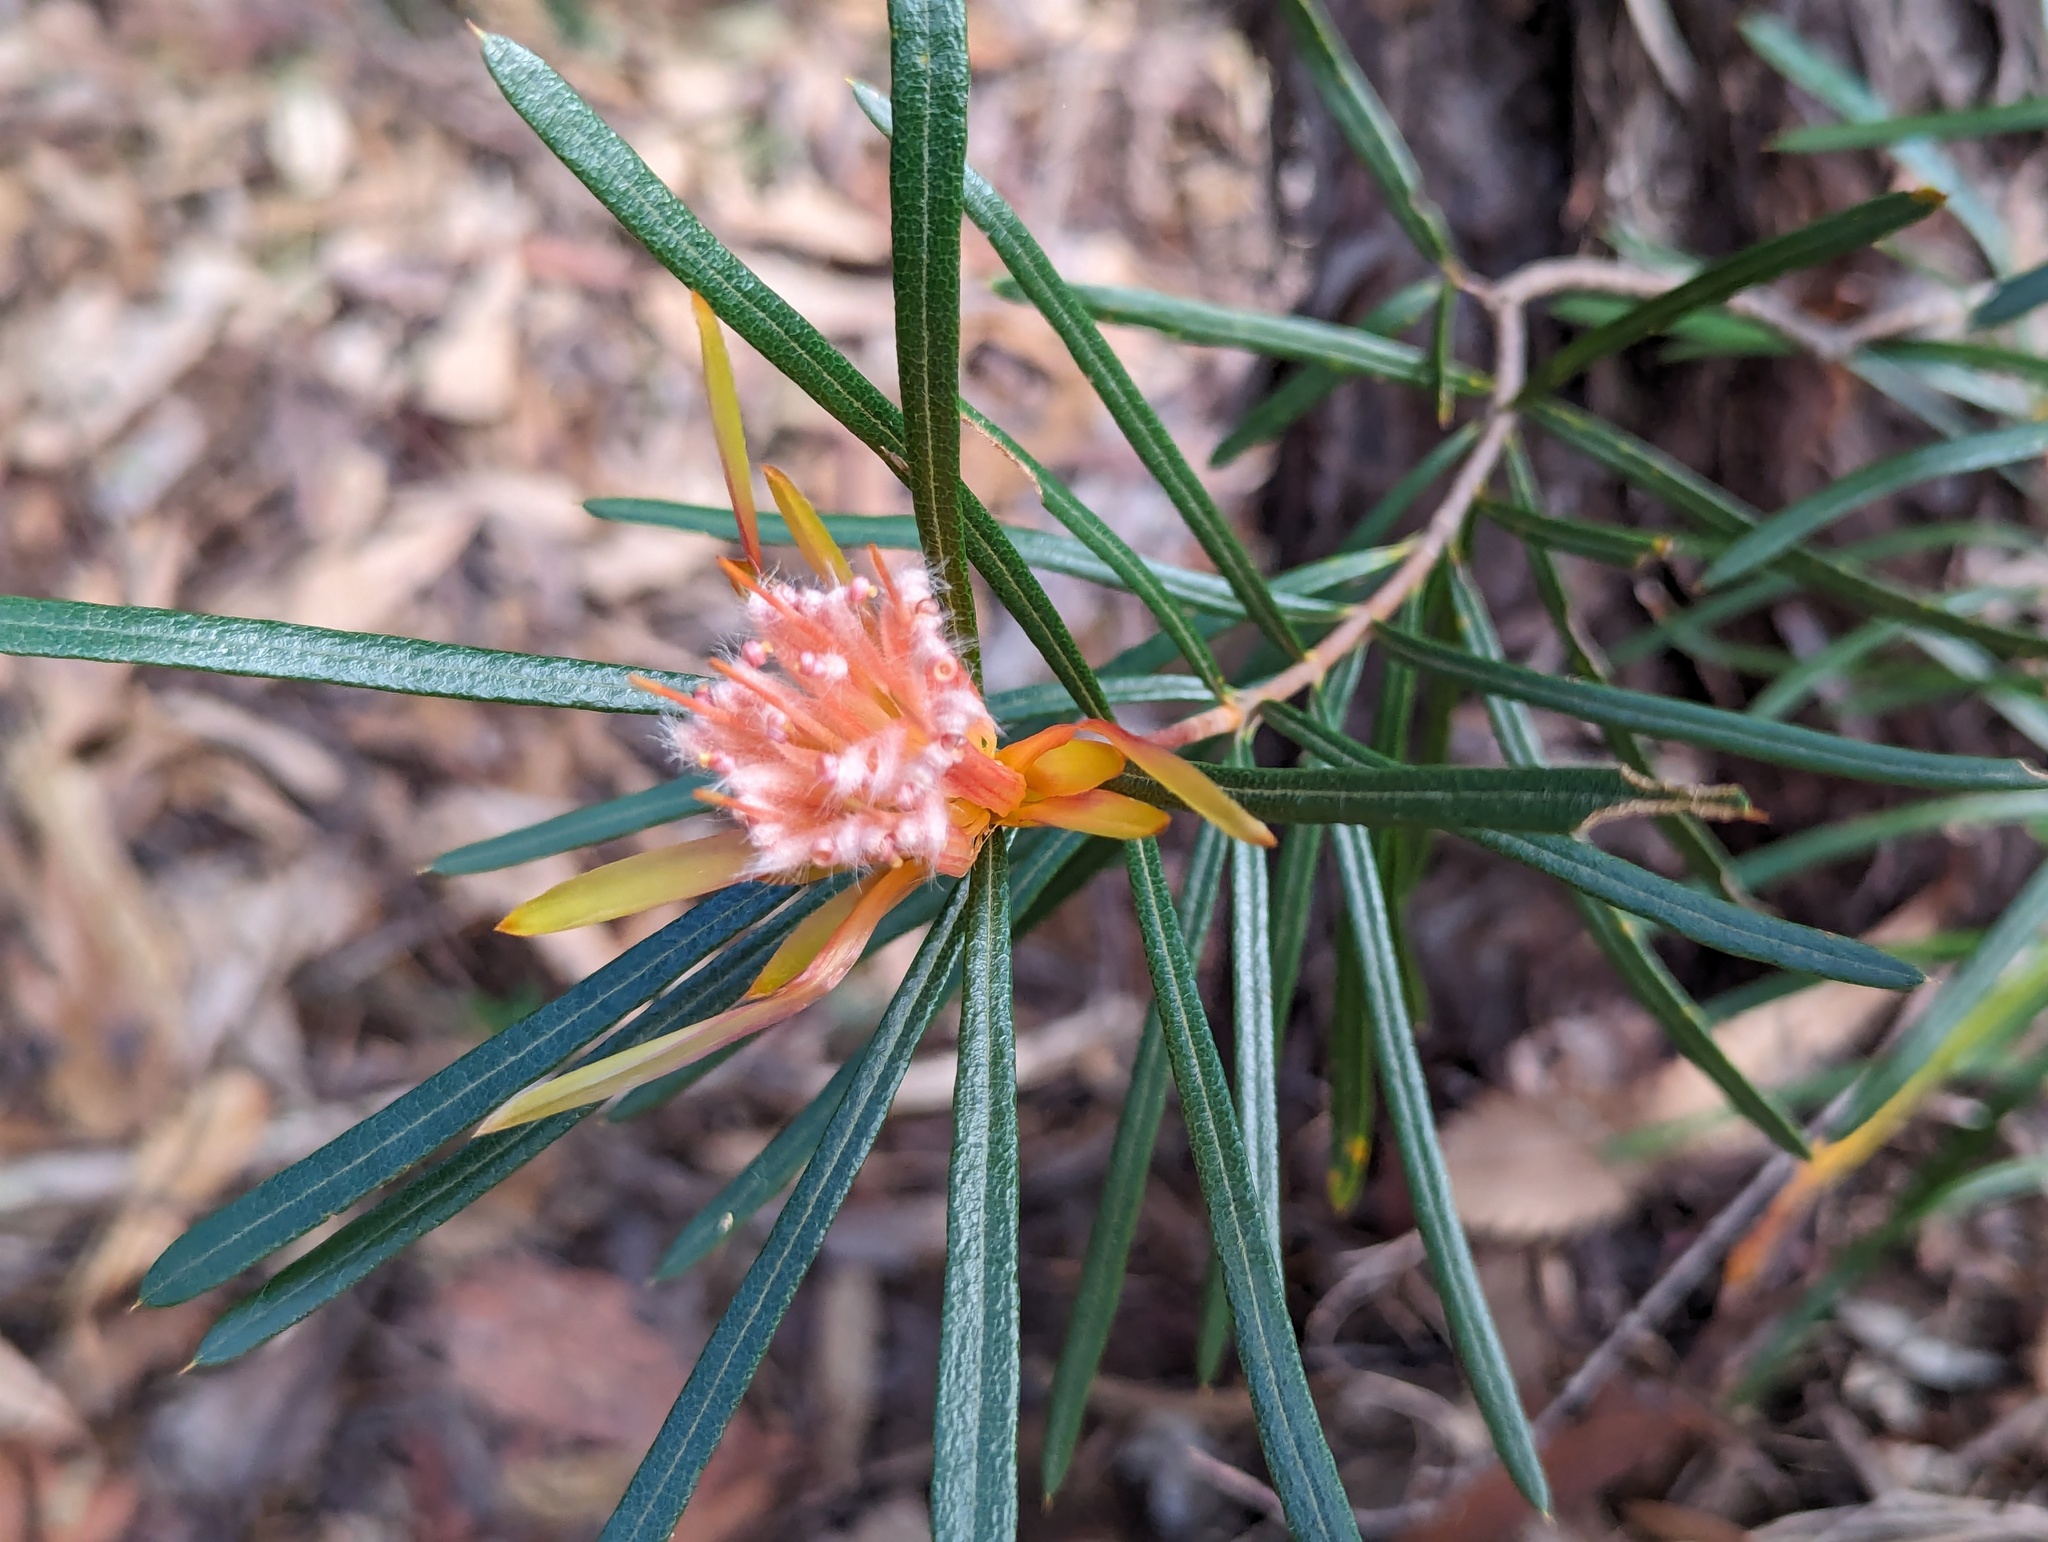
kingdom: Plantae
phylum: Tracheophyta
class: Magnoliopsida
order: Proteales
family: Proteaceae
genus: Lambertia
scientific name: Lambertia formosa
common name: Mountain-devil
